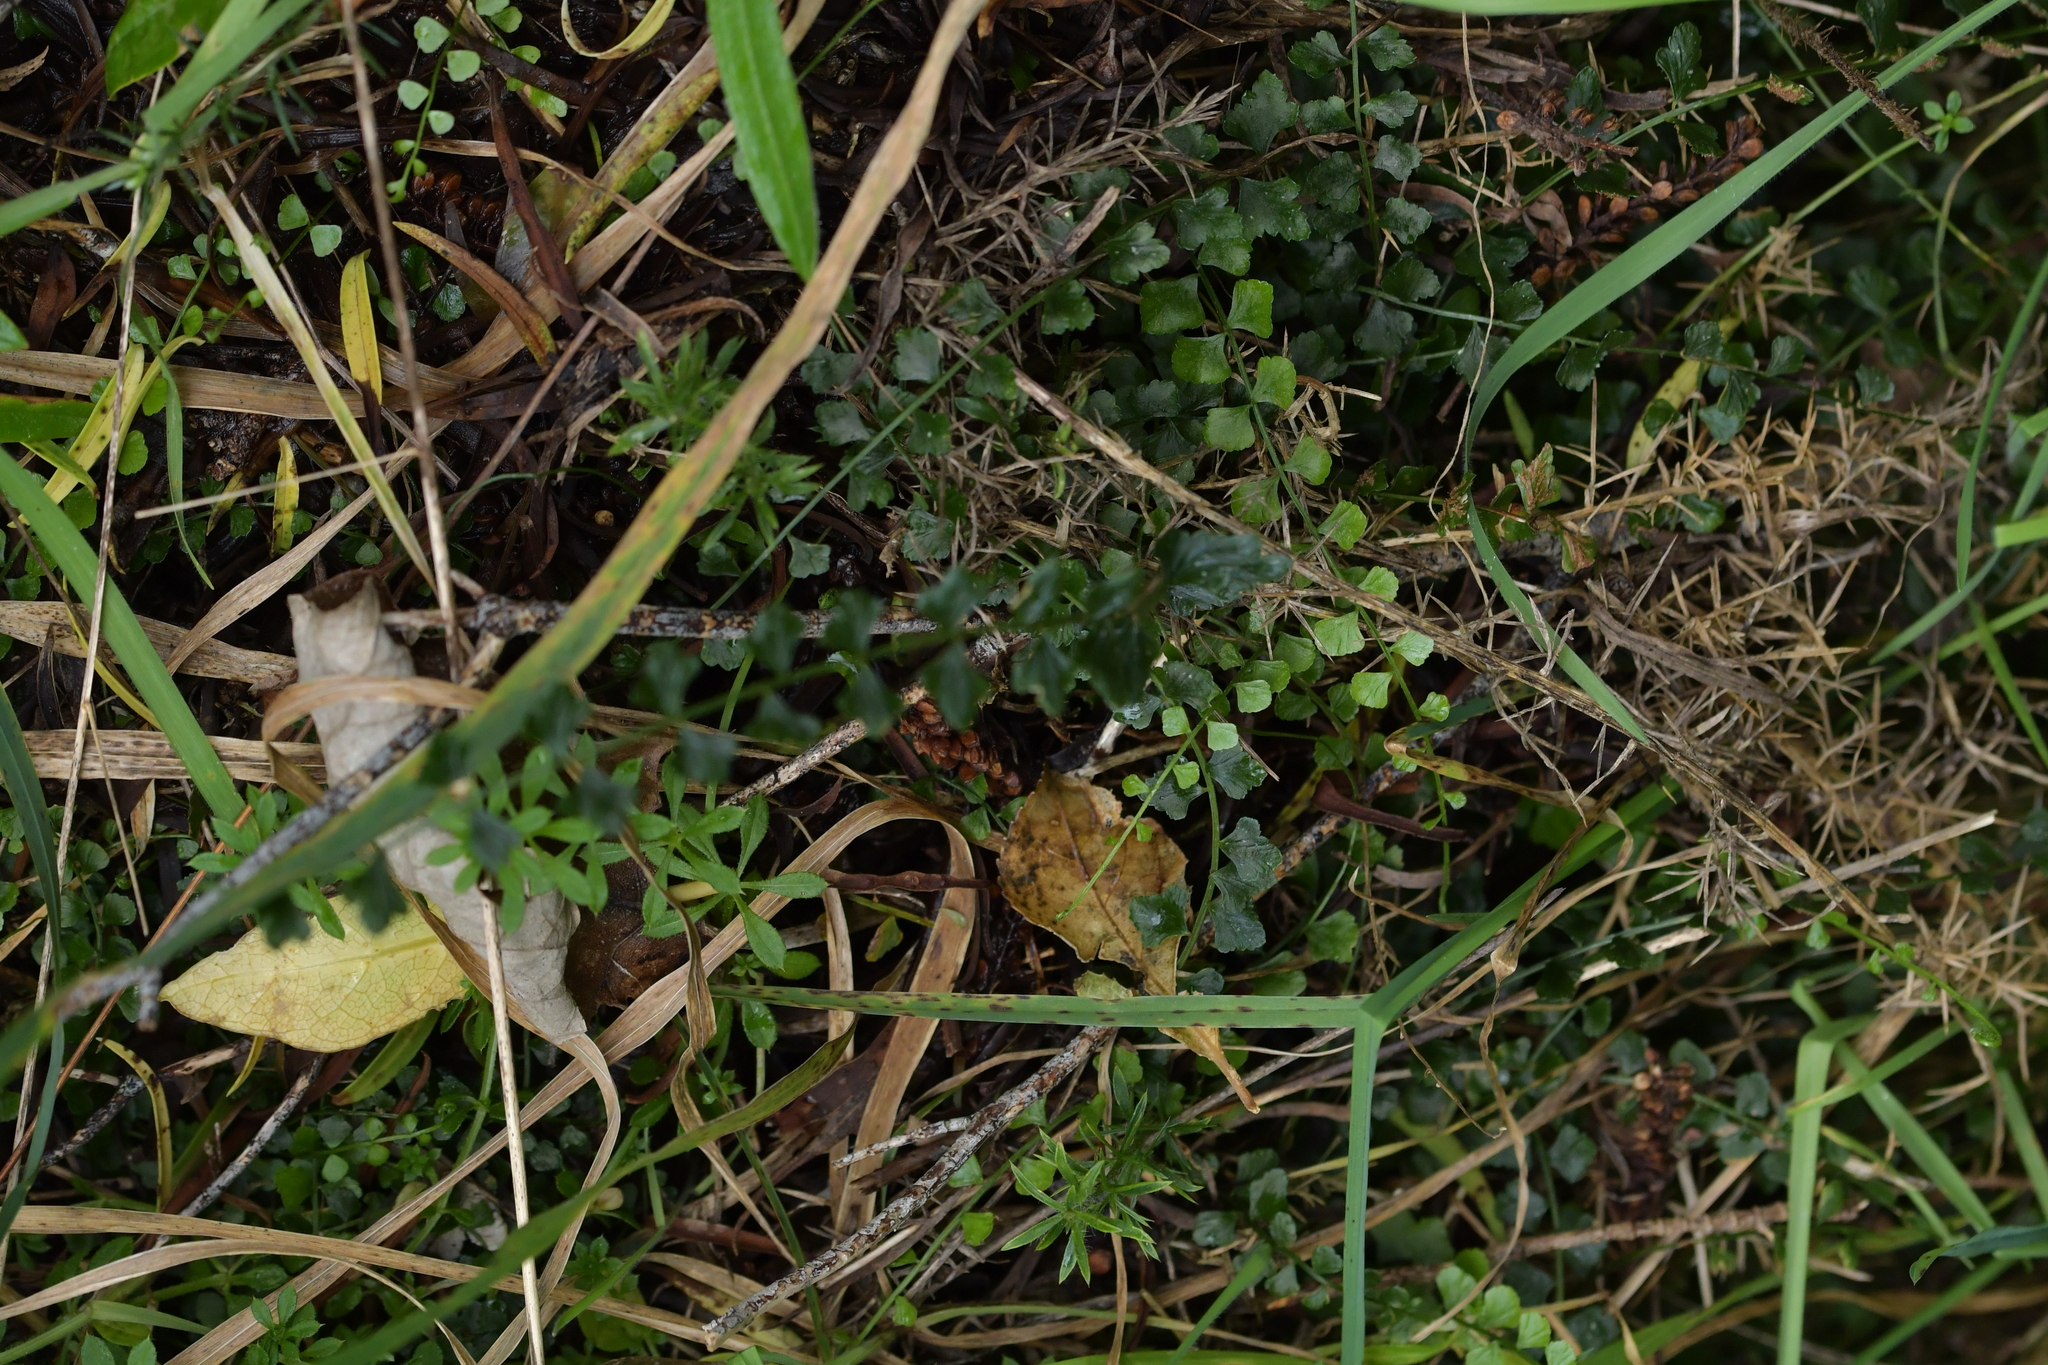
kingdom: Plantae
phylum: Tracheophyta
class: Polypodiopsida
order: Polypodiales
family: Aspleniaceae
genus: Asplenium
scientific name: Asplenium flabellifolium
